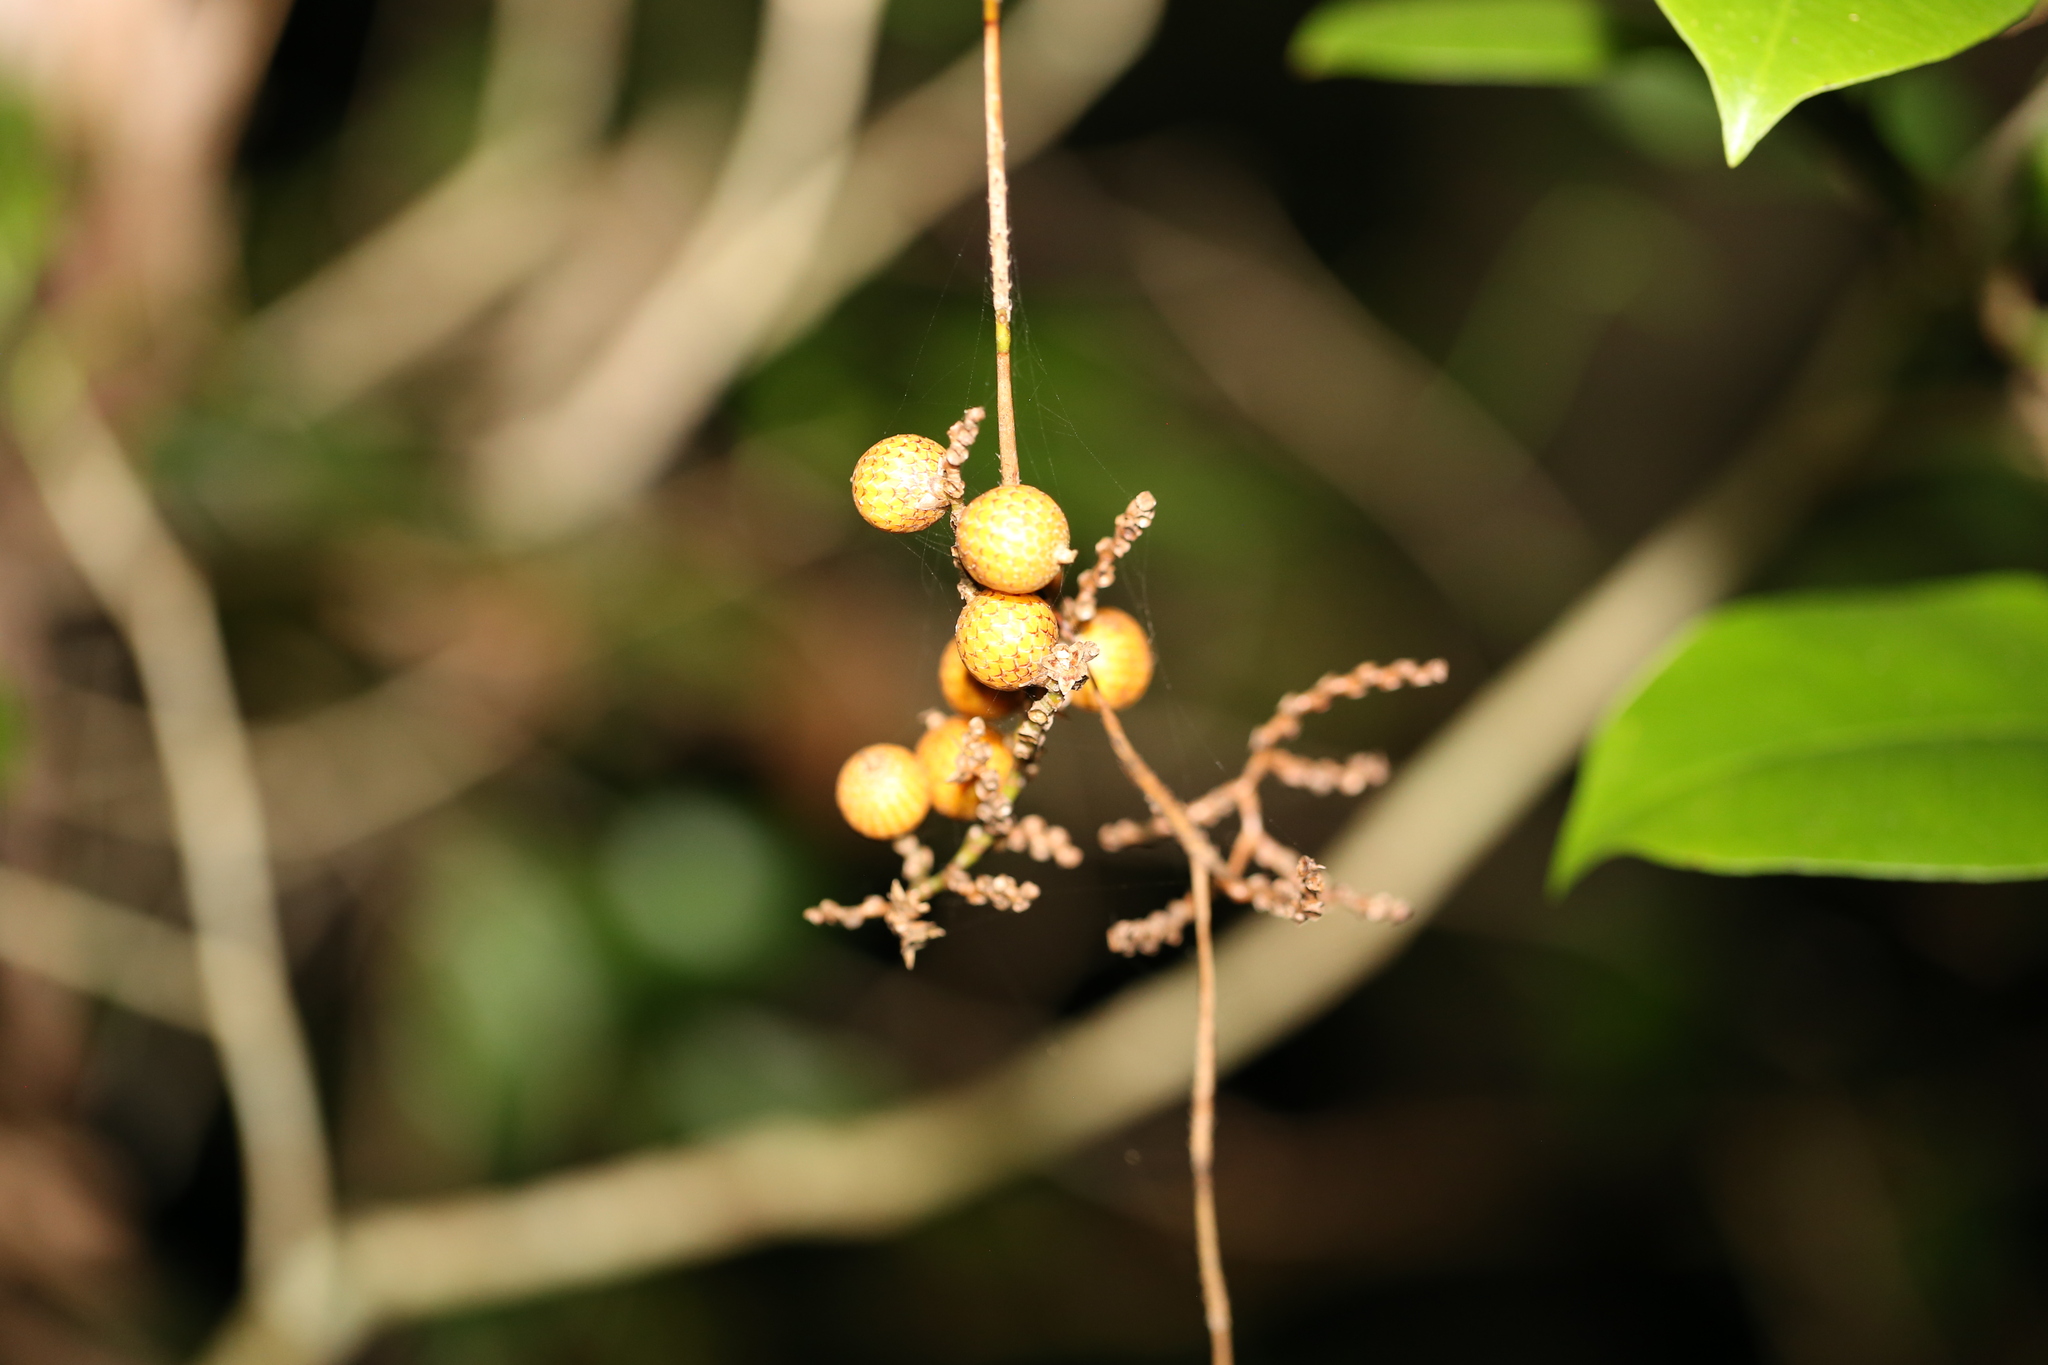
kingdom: Plantae
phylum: Tracheophyta
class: Liliopsida
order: Arecales
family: Arecaceae
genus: Calamus
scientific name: Calamus muelleri
